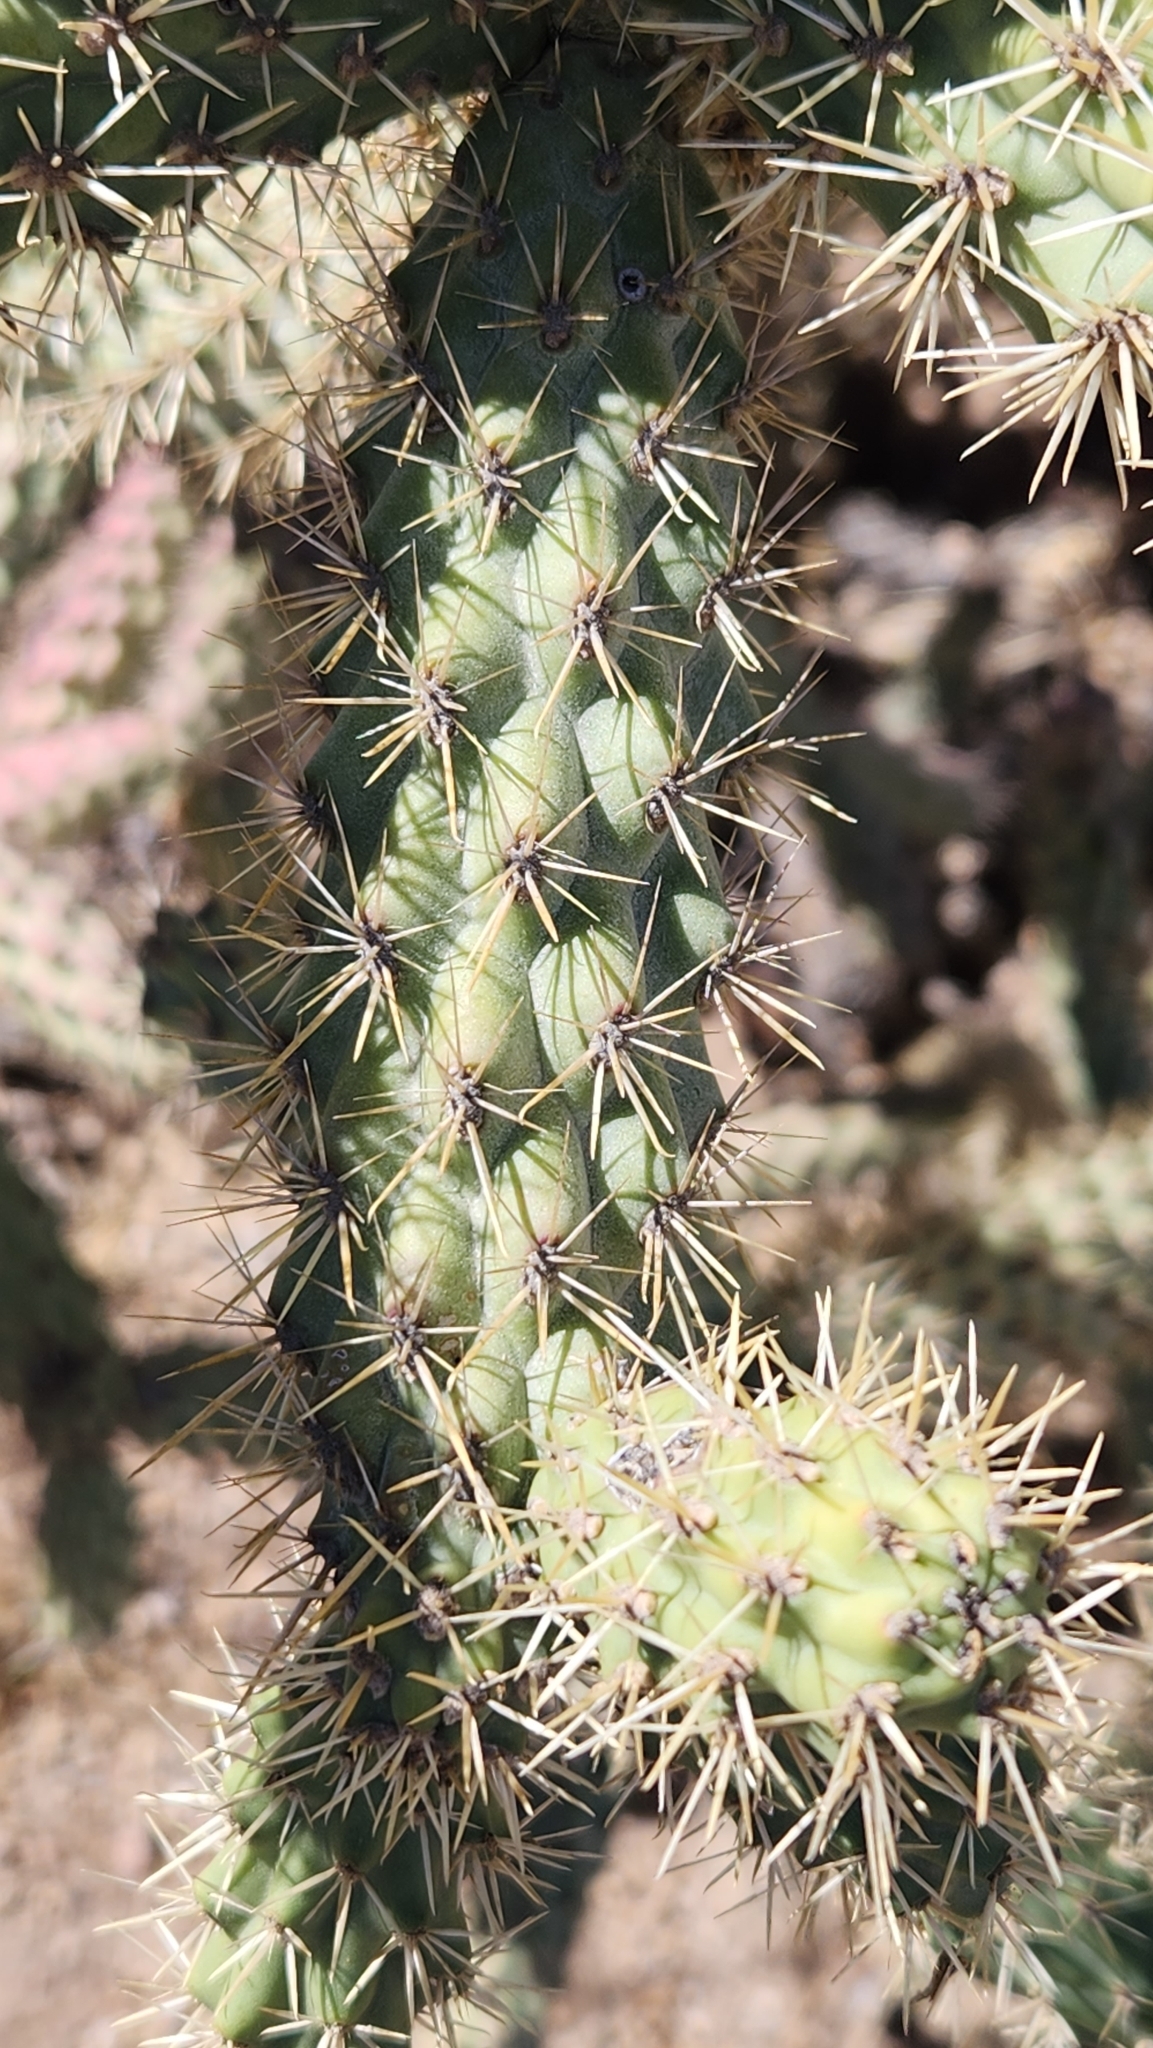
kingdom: Plantae
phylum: Tracheophyta
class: Magnoliopsida
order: Caryophyllales
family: Cactaceae
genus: Cylindropuntia
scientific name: Cylindropuntia alcahes
